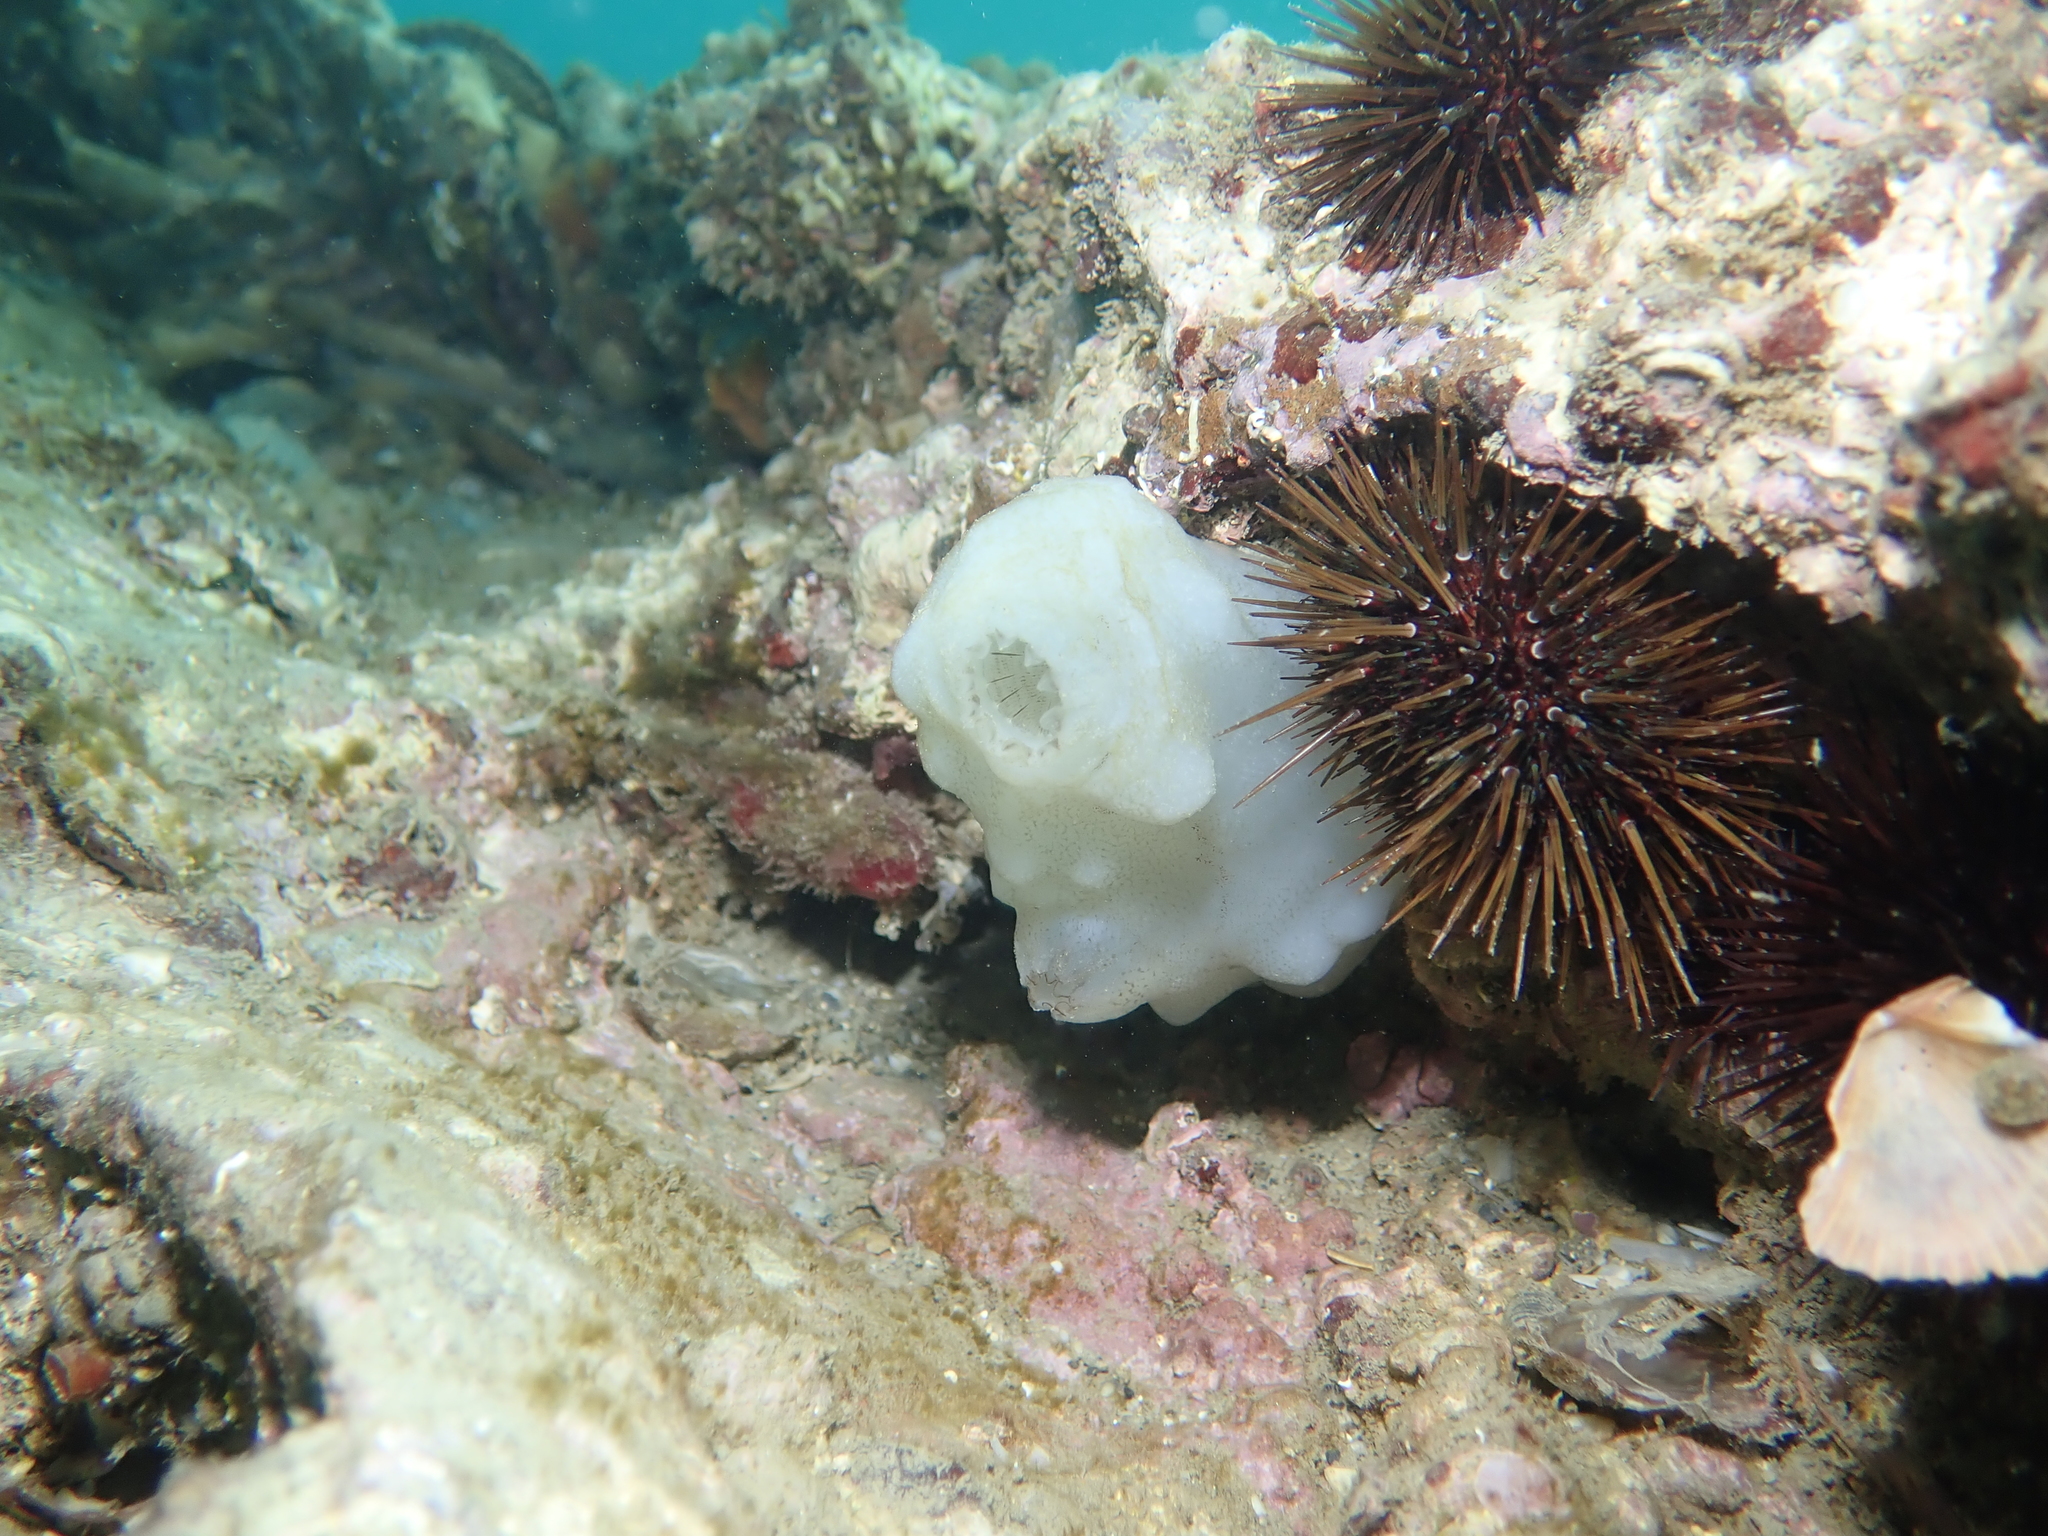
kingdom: Animalia
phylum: Chordata
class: Ascidiacea
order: Phlebobranchia
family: Ascidiidae
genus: Phallusia
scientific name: Phallusia mammillata
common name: Neptune's heart sea squirt
